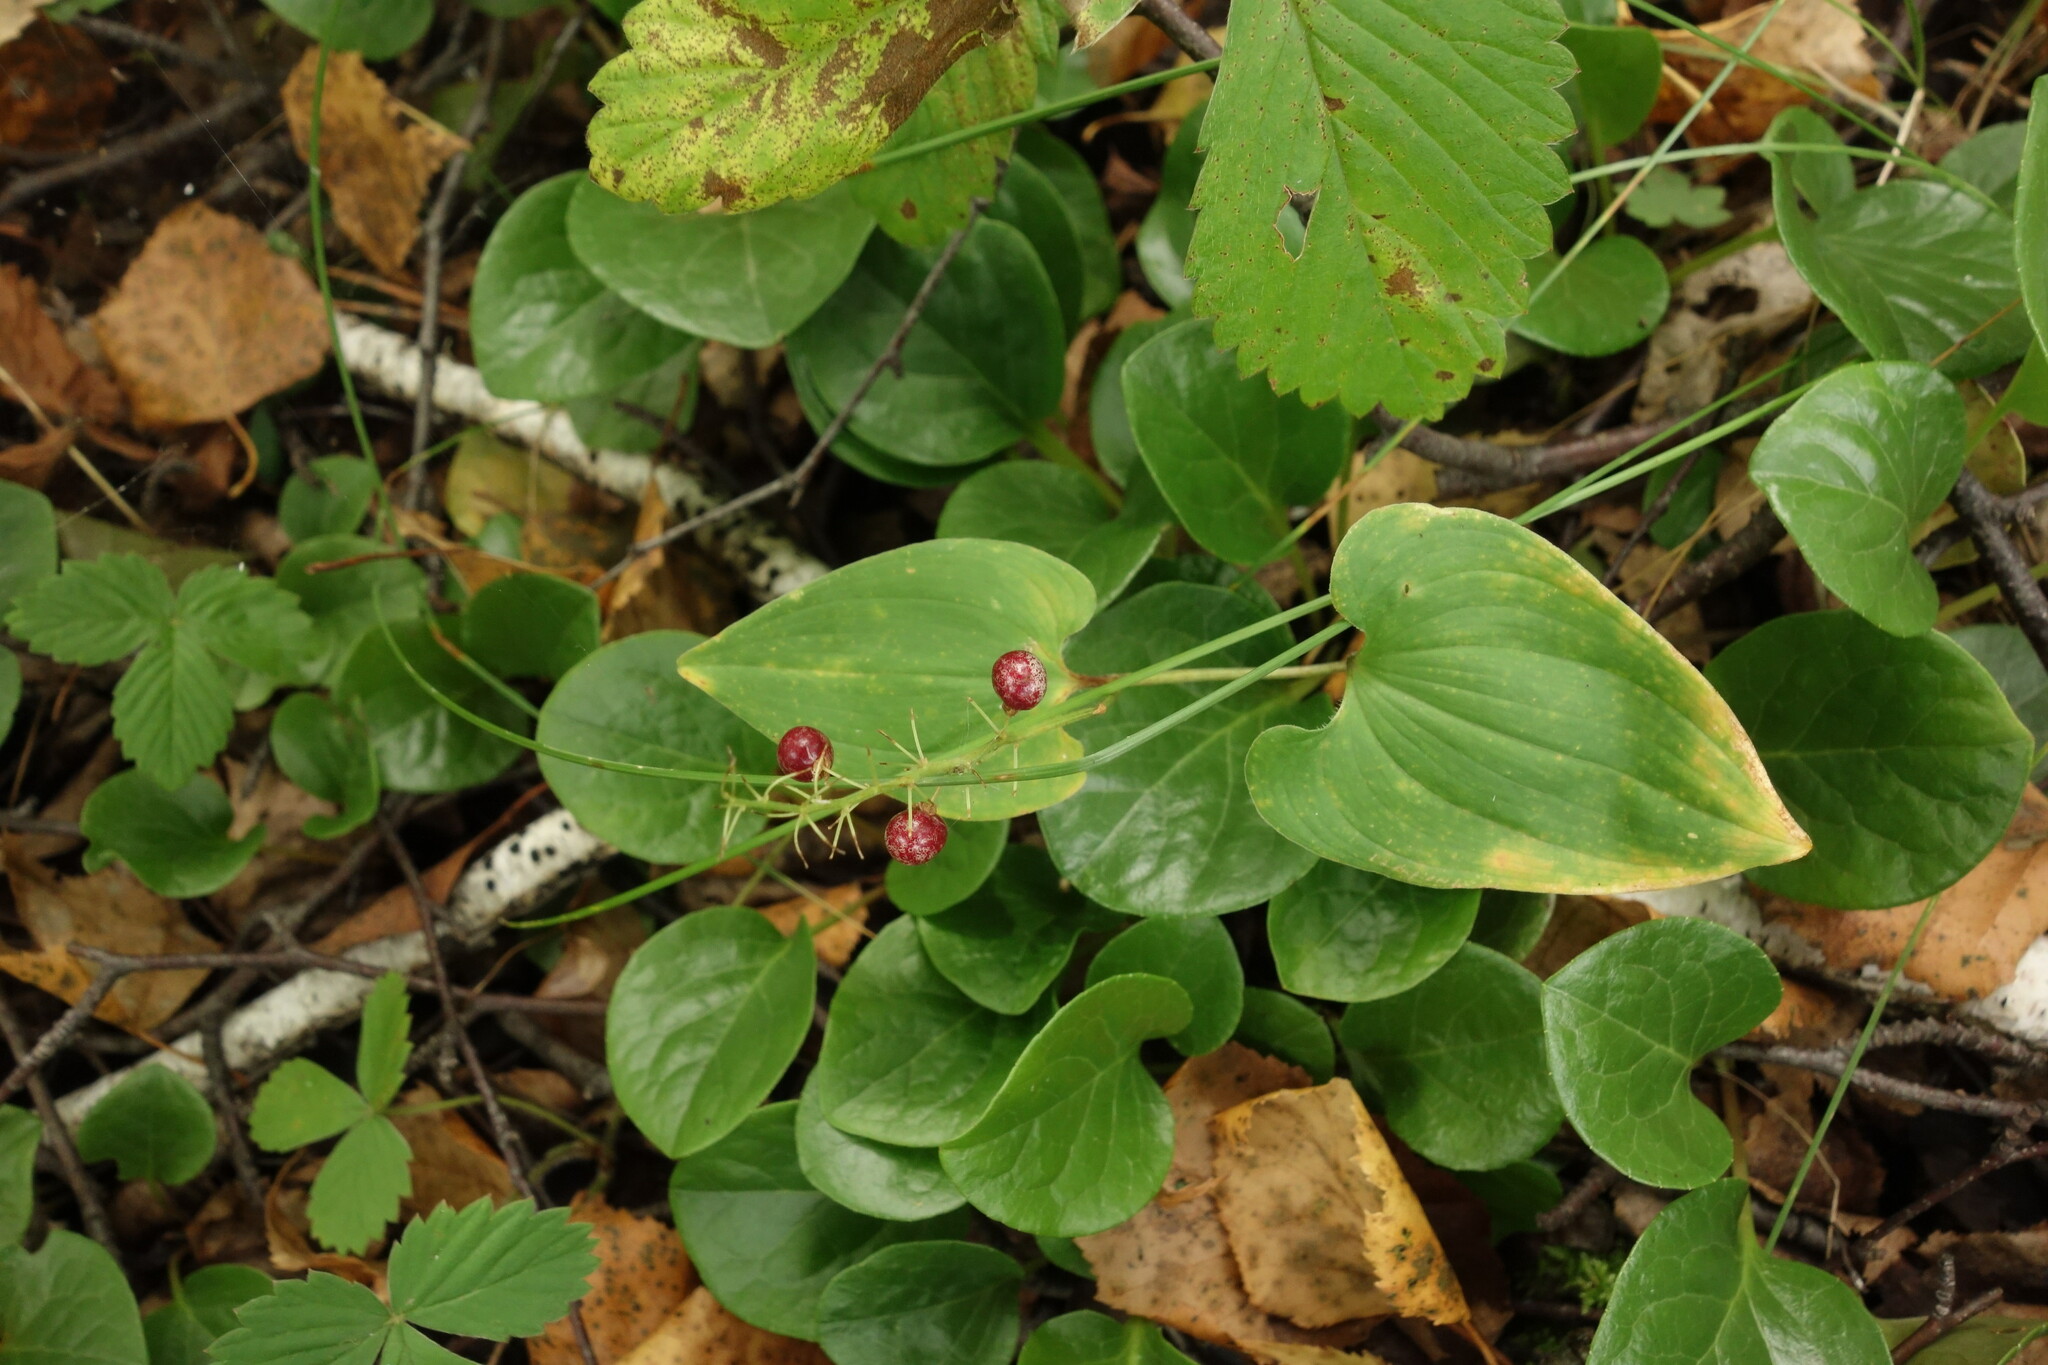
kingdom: Plantae
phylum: Tracheophyta
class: Liliopsida
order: Asparagales
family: Asparagaceae
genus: Maianthemum
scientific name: Maianthemum bifolium
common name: May lily
